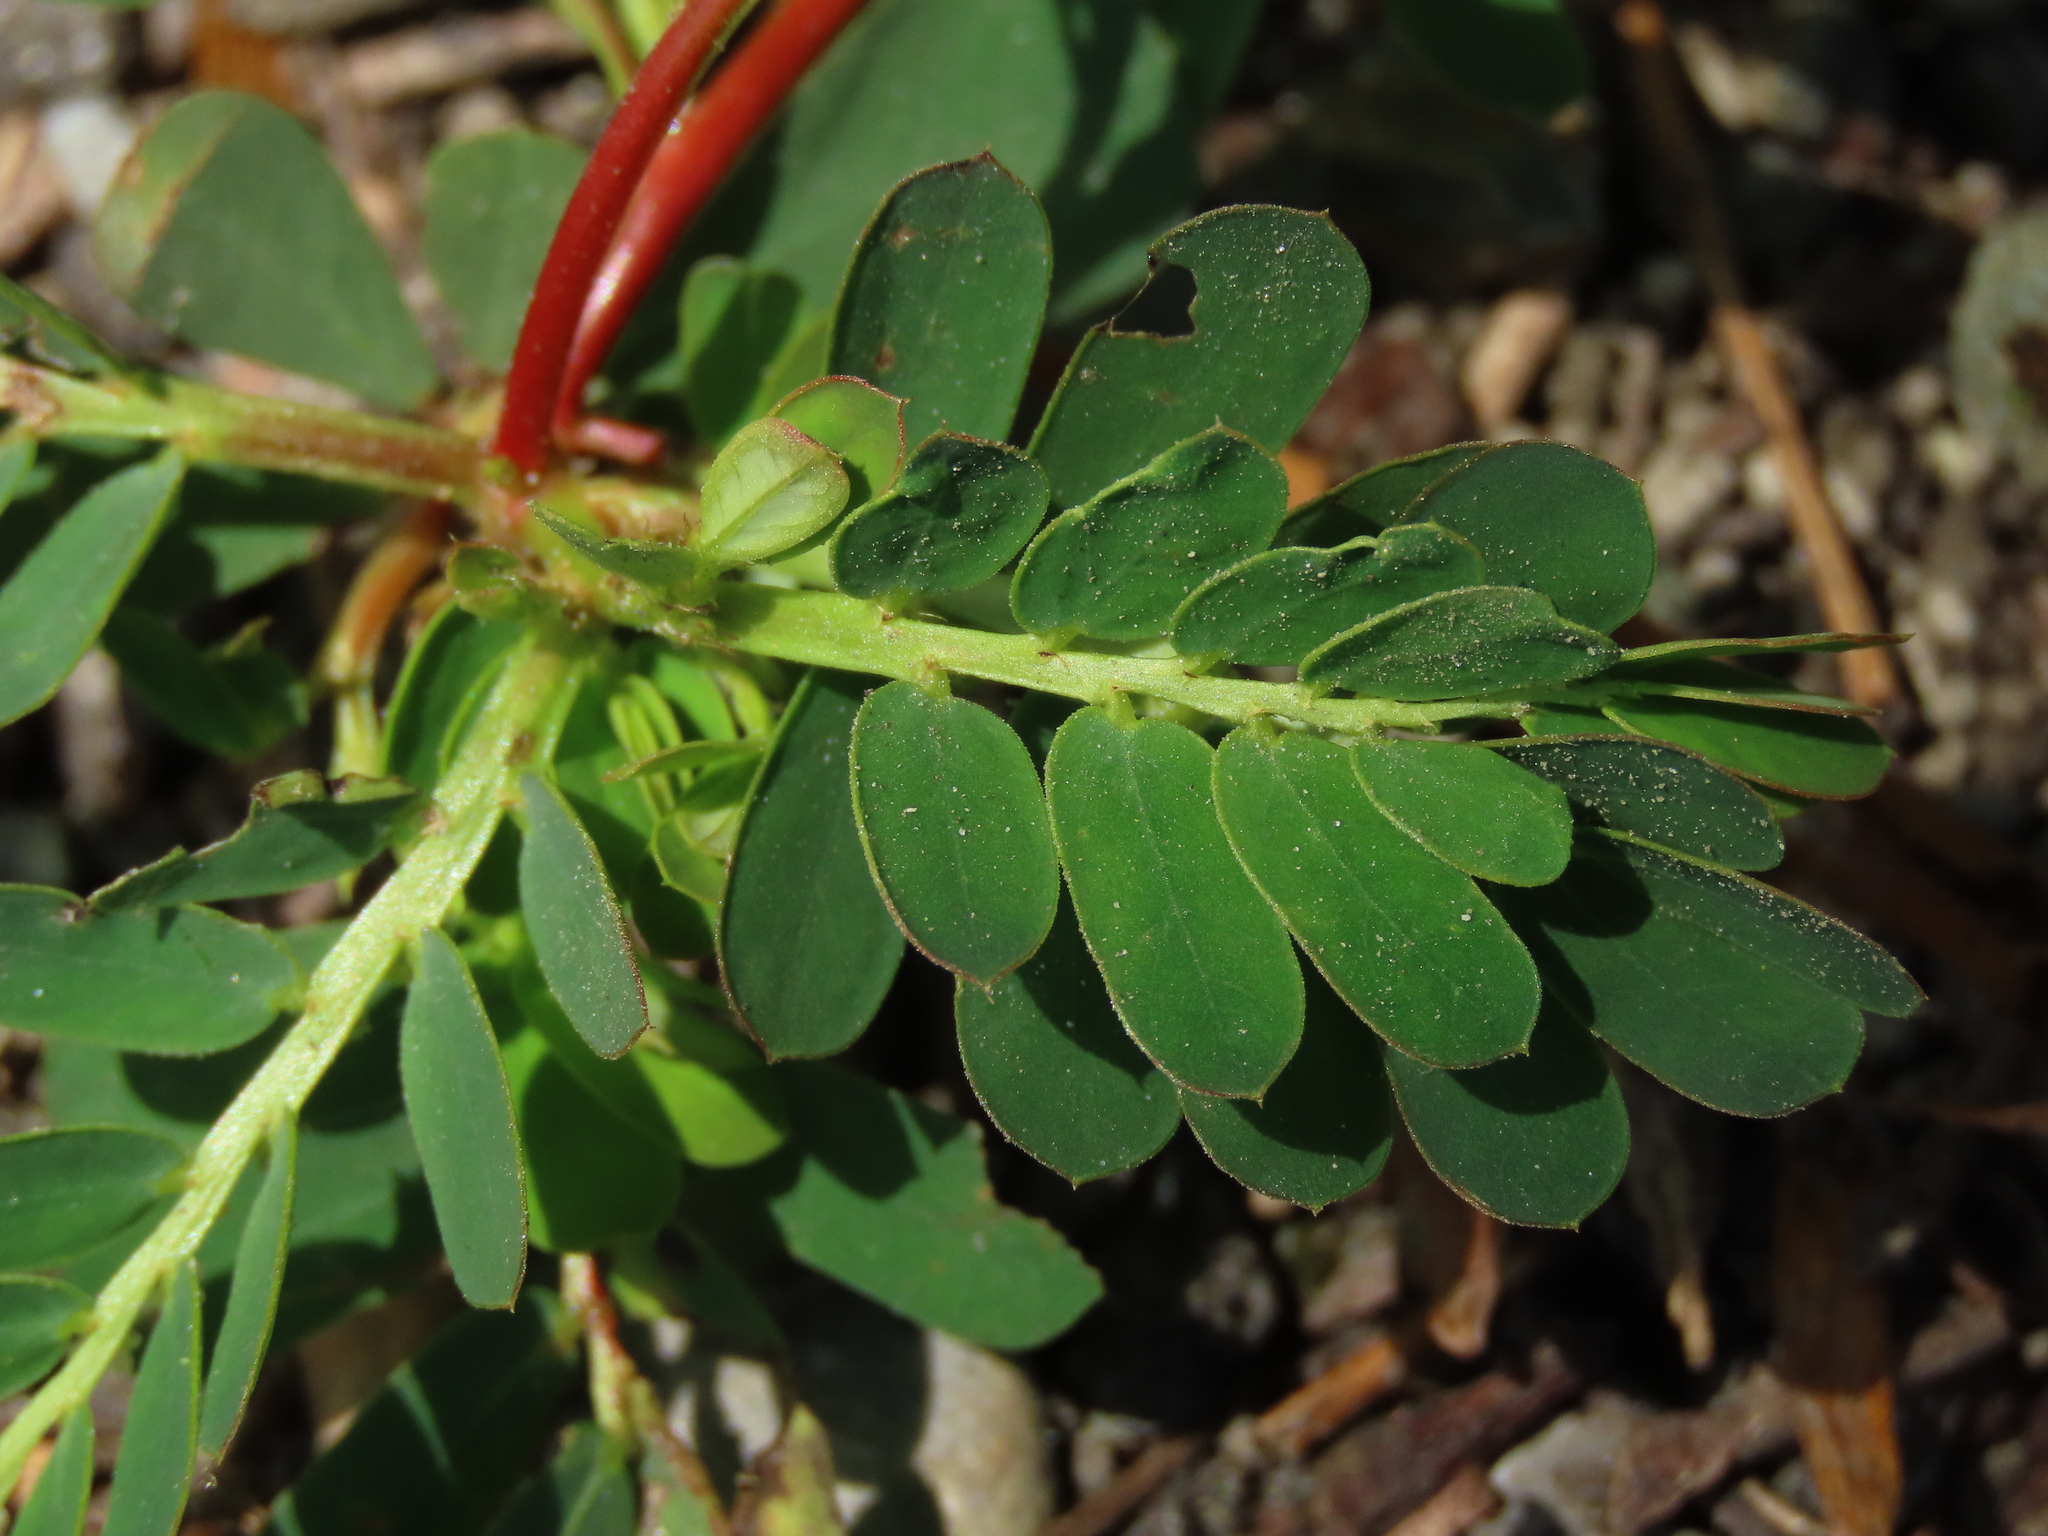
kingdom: Plantae
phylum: Tracheophyta
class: Magnoliopsida
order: Malpighiales
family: Phyllanthaceae
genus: Phyllanthus
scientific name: Phyllanthus urinaria
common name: Chamber bitter
